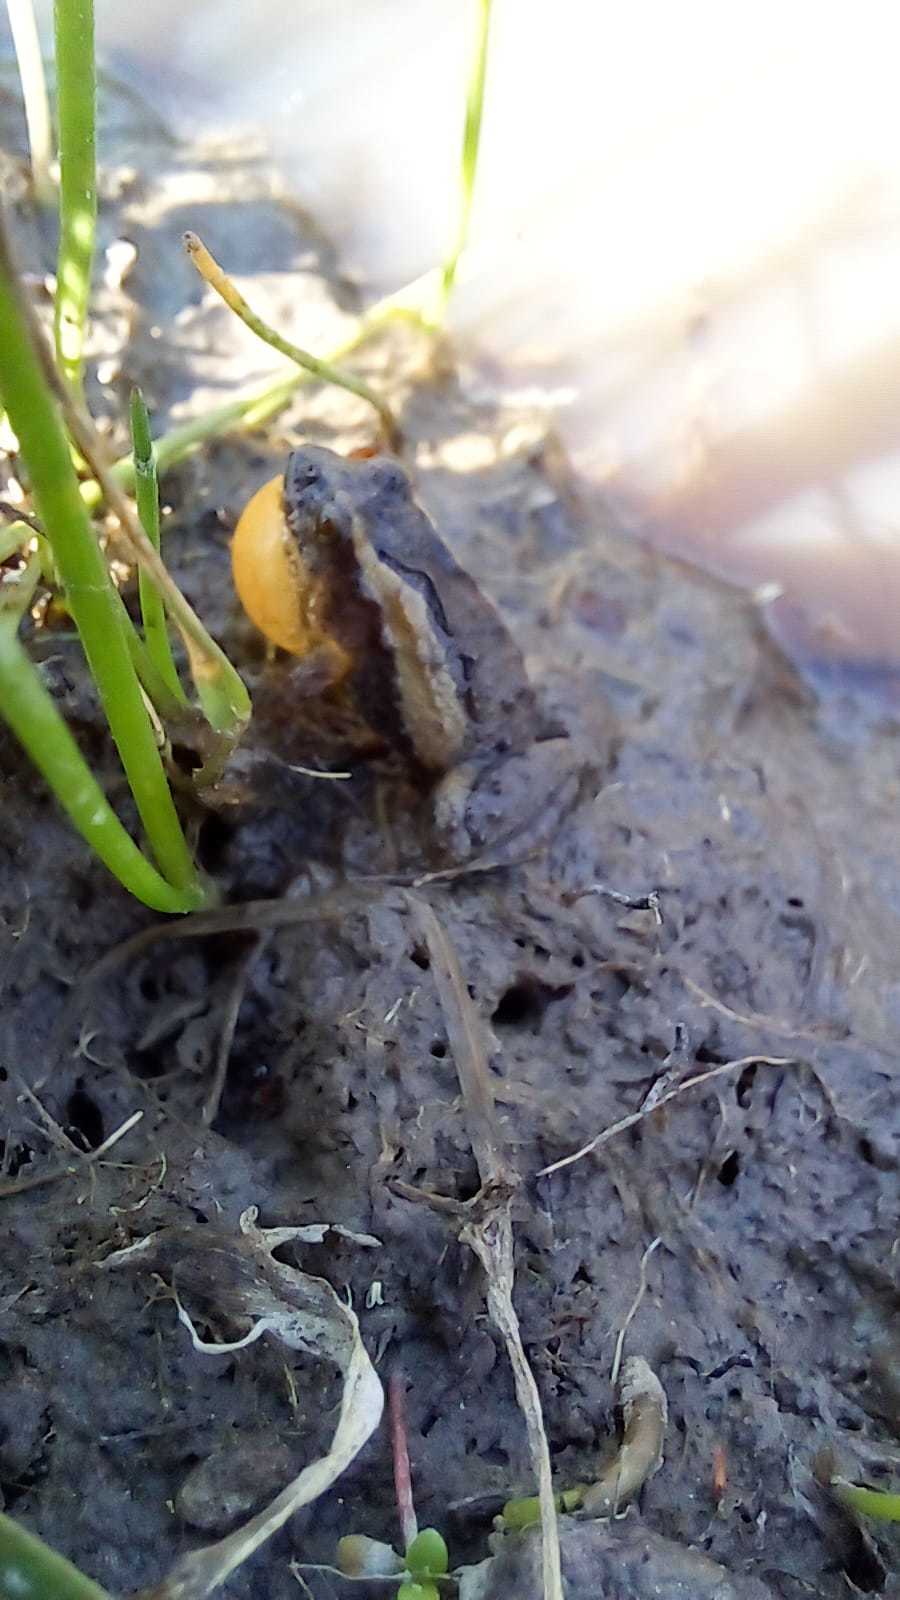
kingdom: Animalia
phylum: Chordata
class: Amphibia
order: Anura
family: Leptodactylidae
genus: Pseudopaludicola
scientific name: Pseudopaludicola falcipes
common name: Hensel’s swamp frog
